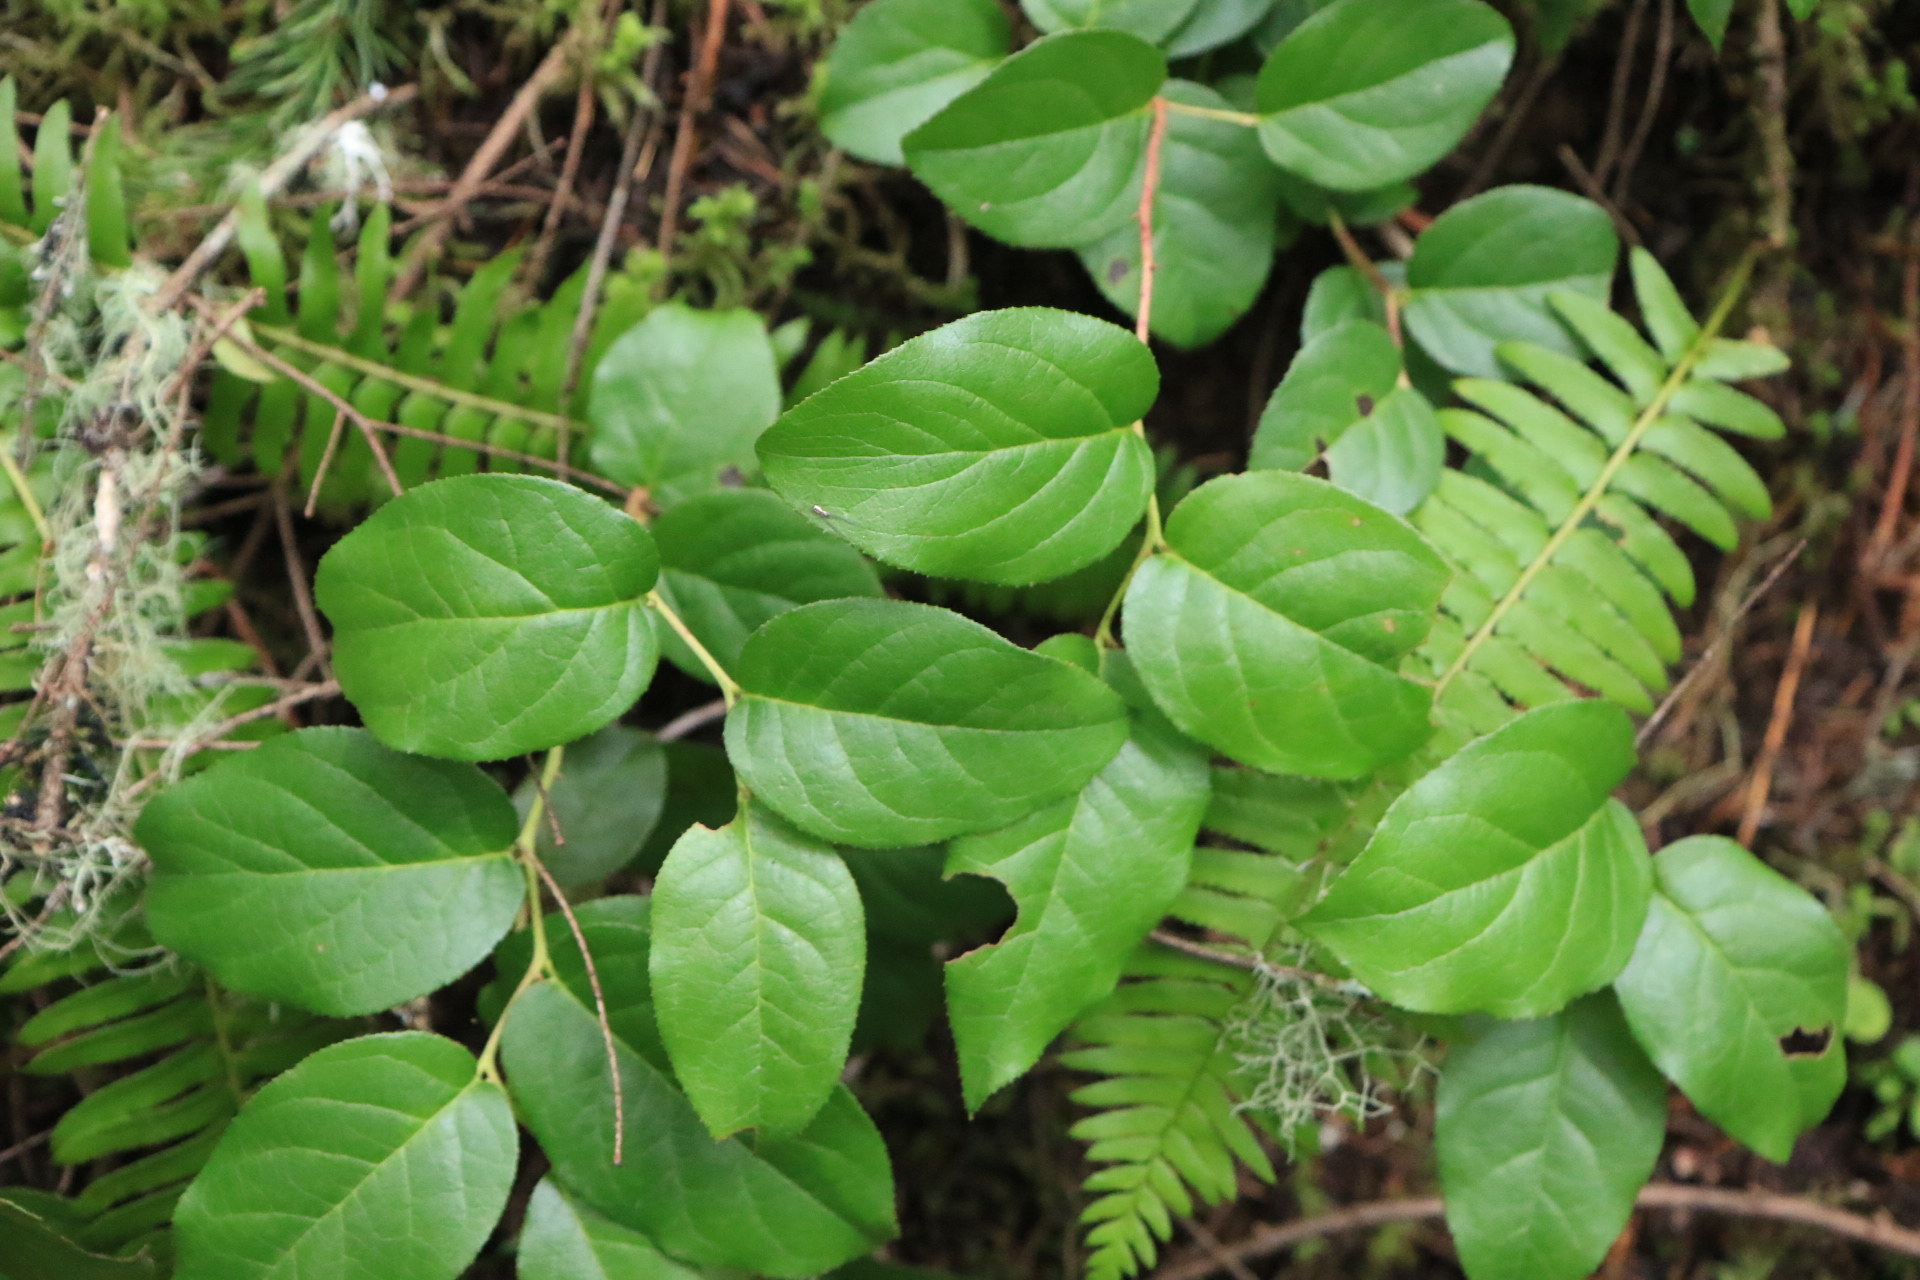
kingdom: Plantae
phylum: Tracheophyta
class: Magnoliopsida
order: Ericales
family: Ericaceae
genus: Gaultheria
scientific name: Gaultheria shallon
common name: Shallon
